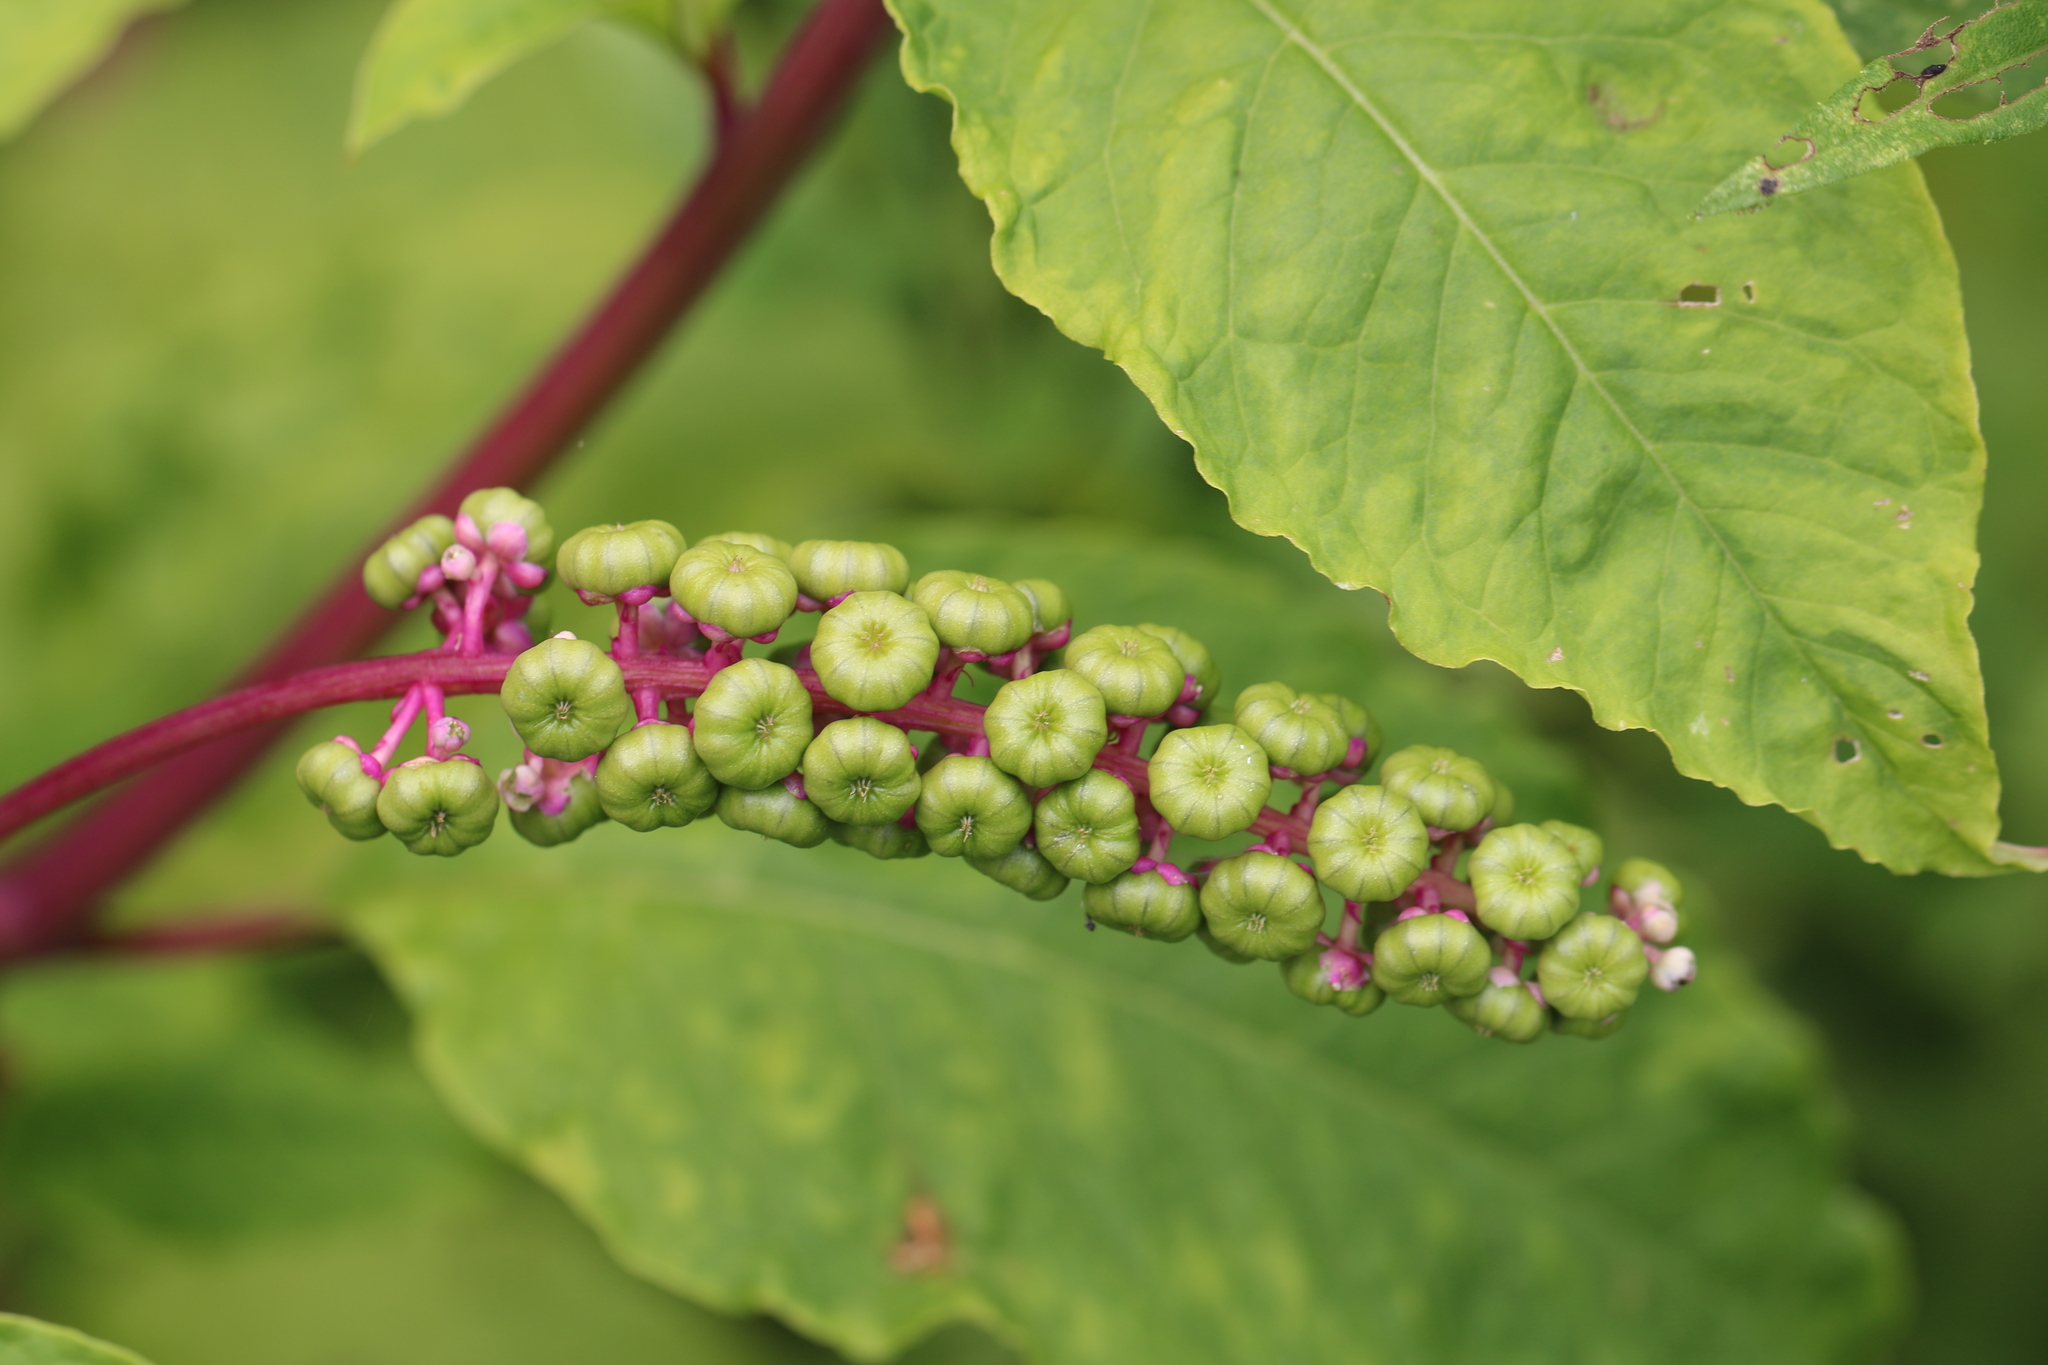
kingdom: Plantae
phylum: Tracheophyta
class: Magnoliopsida
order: Caryophyllales
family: Phytolaccaceae
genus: Phytolacca
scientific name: Phytolacca americana
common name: American pokeweed
